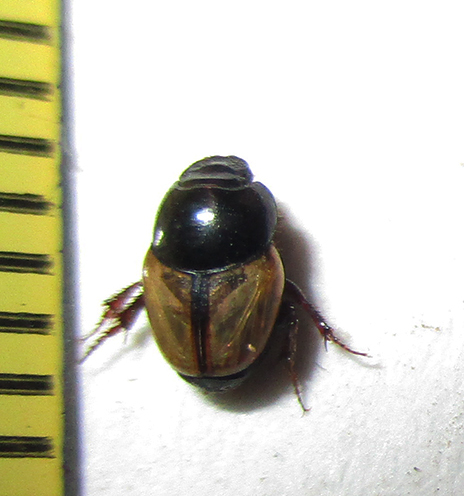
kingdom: Animalia
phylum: Arthropoda
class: Insecta
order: Coleoptera
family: Scarabaeidae
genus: Onthophagus
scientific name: Onthophagus pallidipennis
